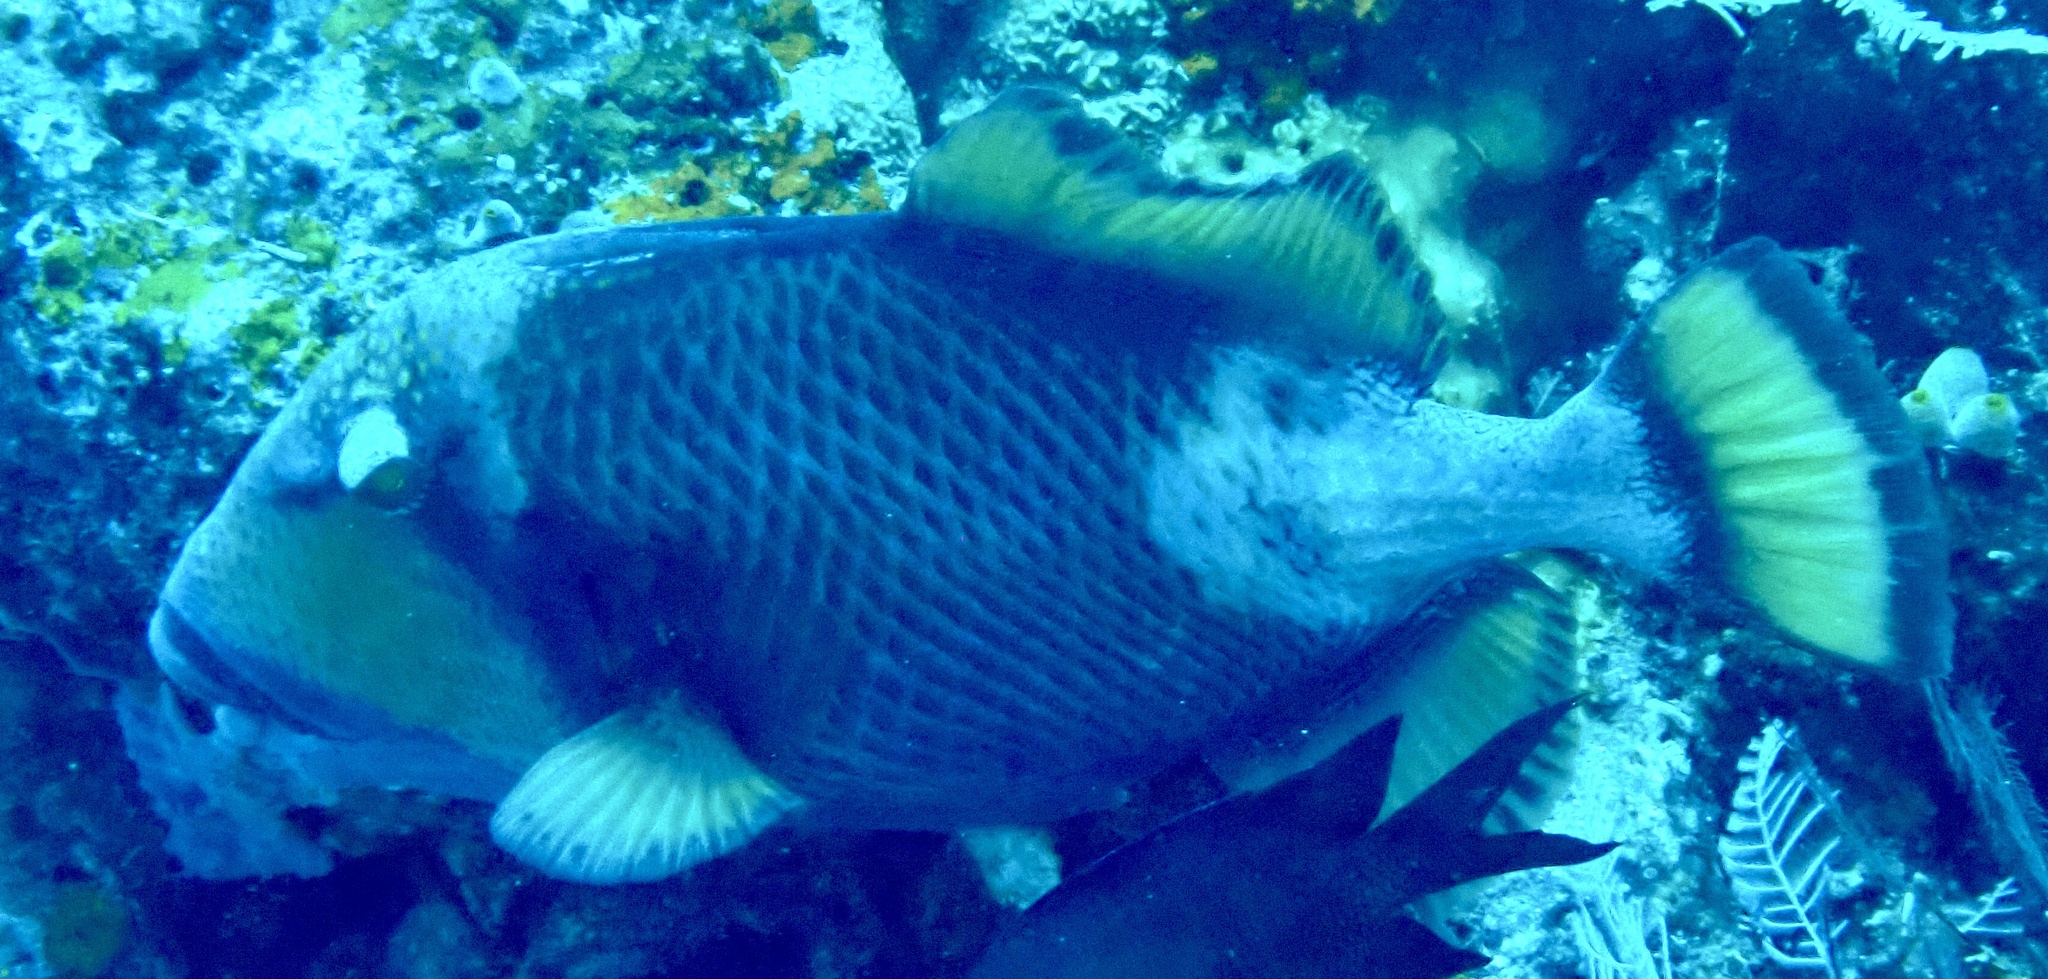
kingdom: Animalia
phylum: Chordata
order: Tetraodontiformes
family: Balistidae
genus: Balistoides
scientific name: Balistoides viridescens
